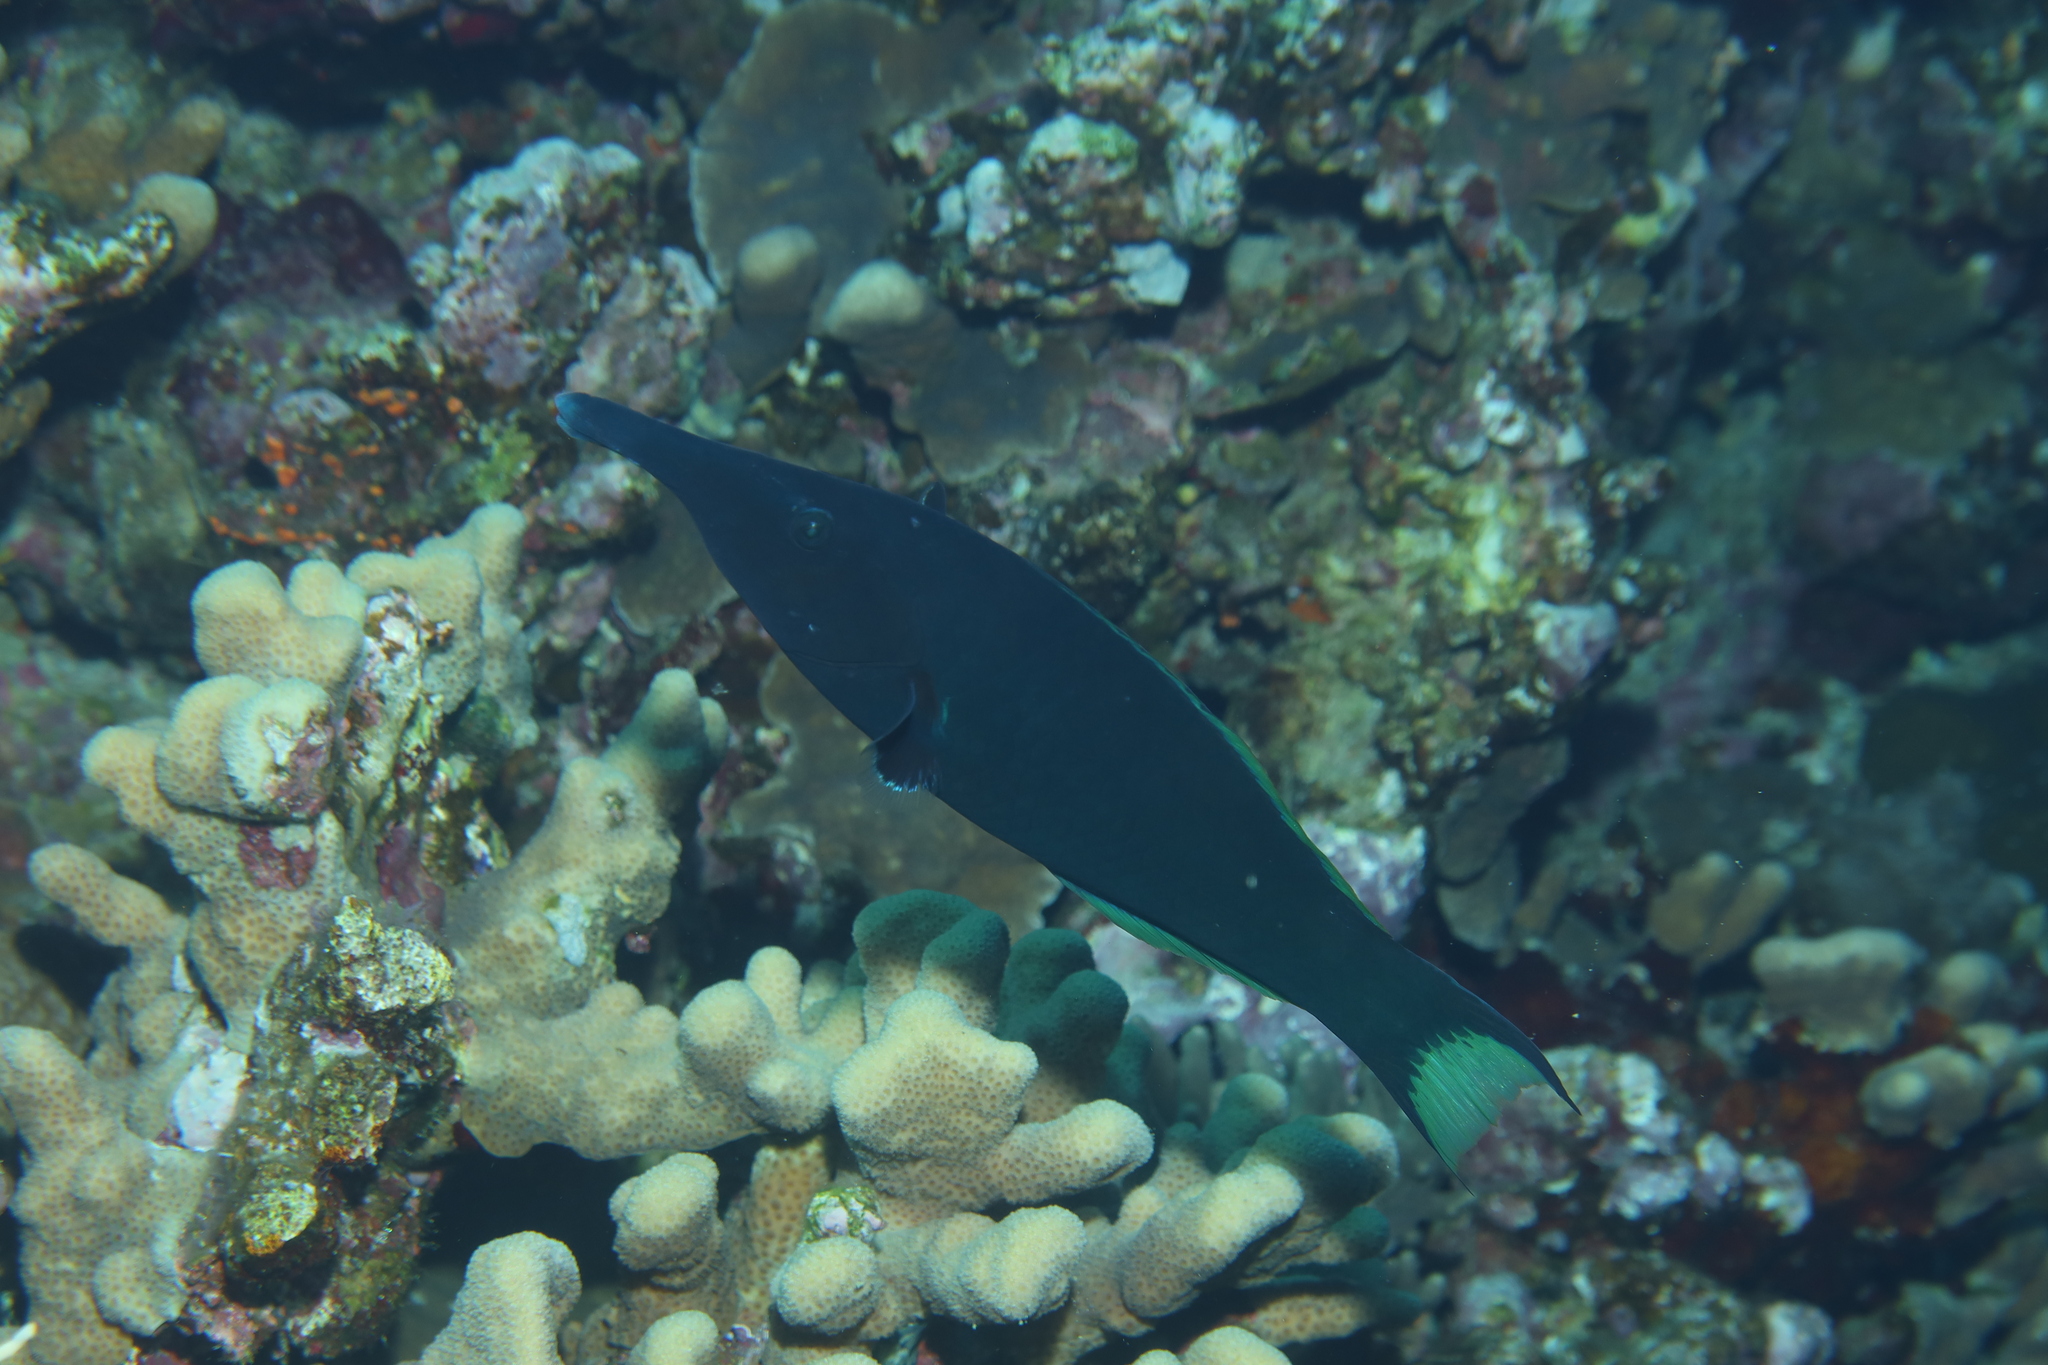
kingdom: Animalia
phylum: Chordata
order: Perciformes
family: Labridae
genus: Gomphosus
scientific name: Gomphosus klunzingeri
